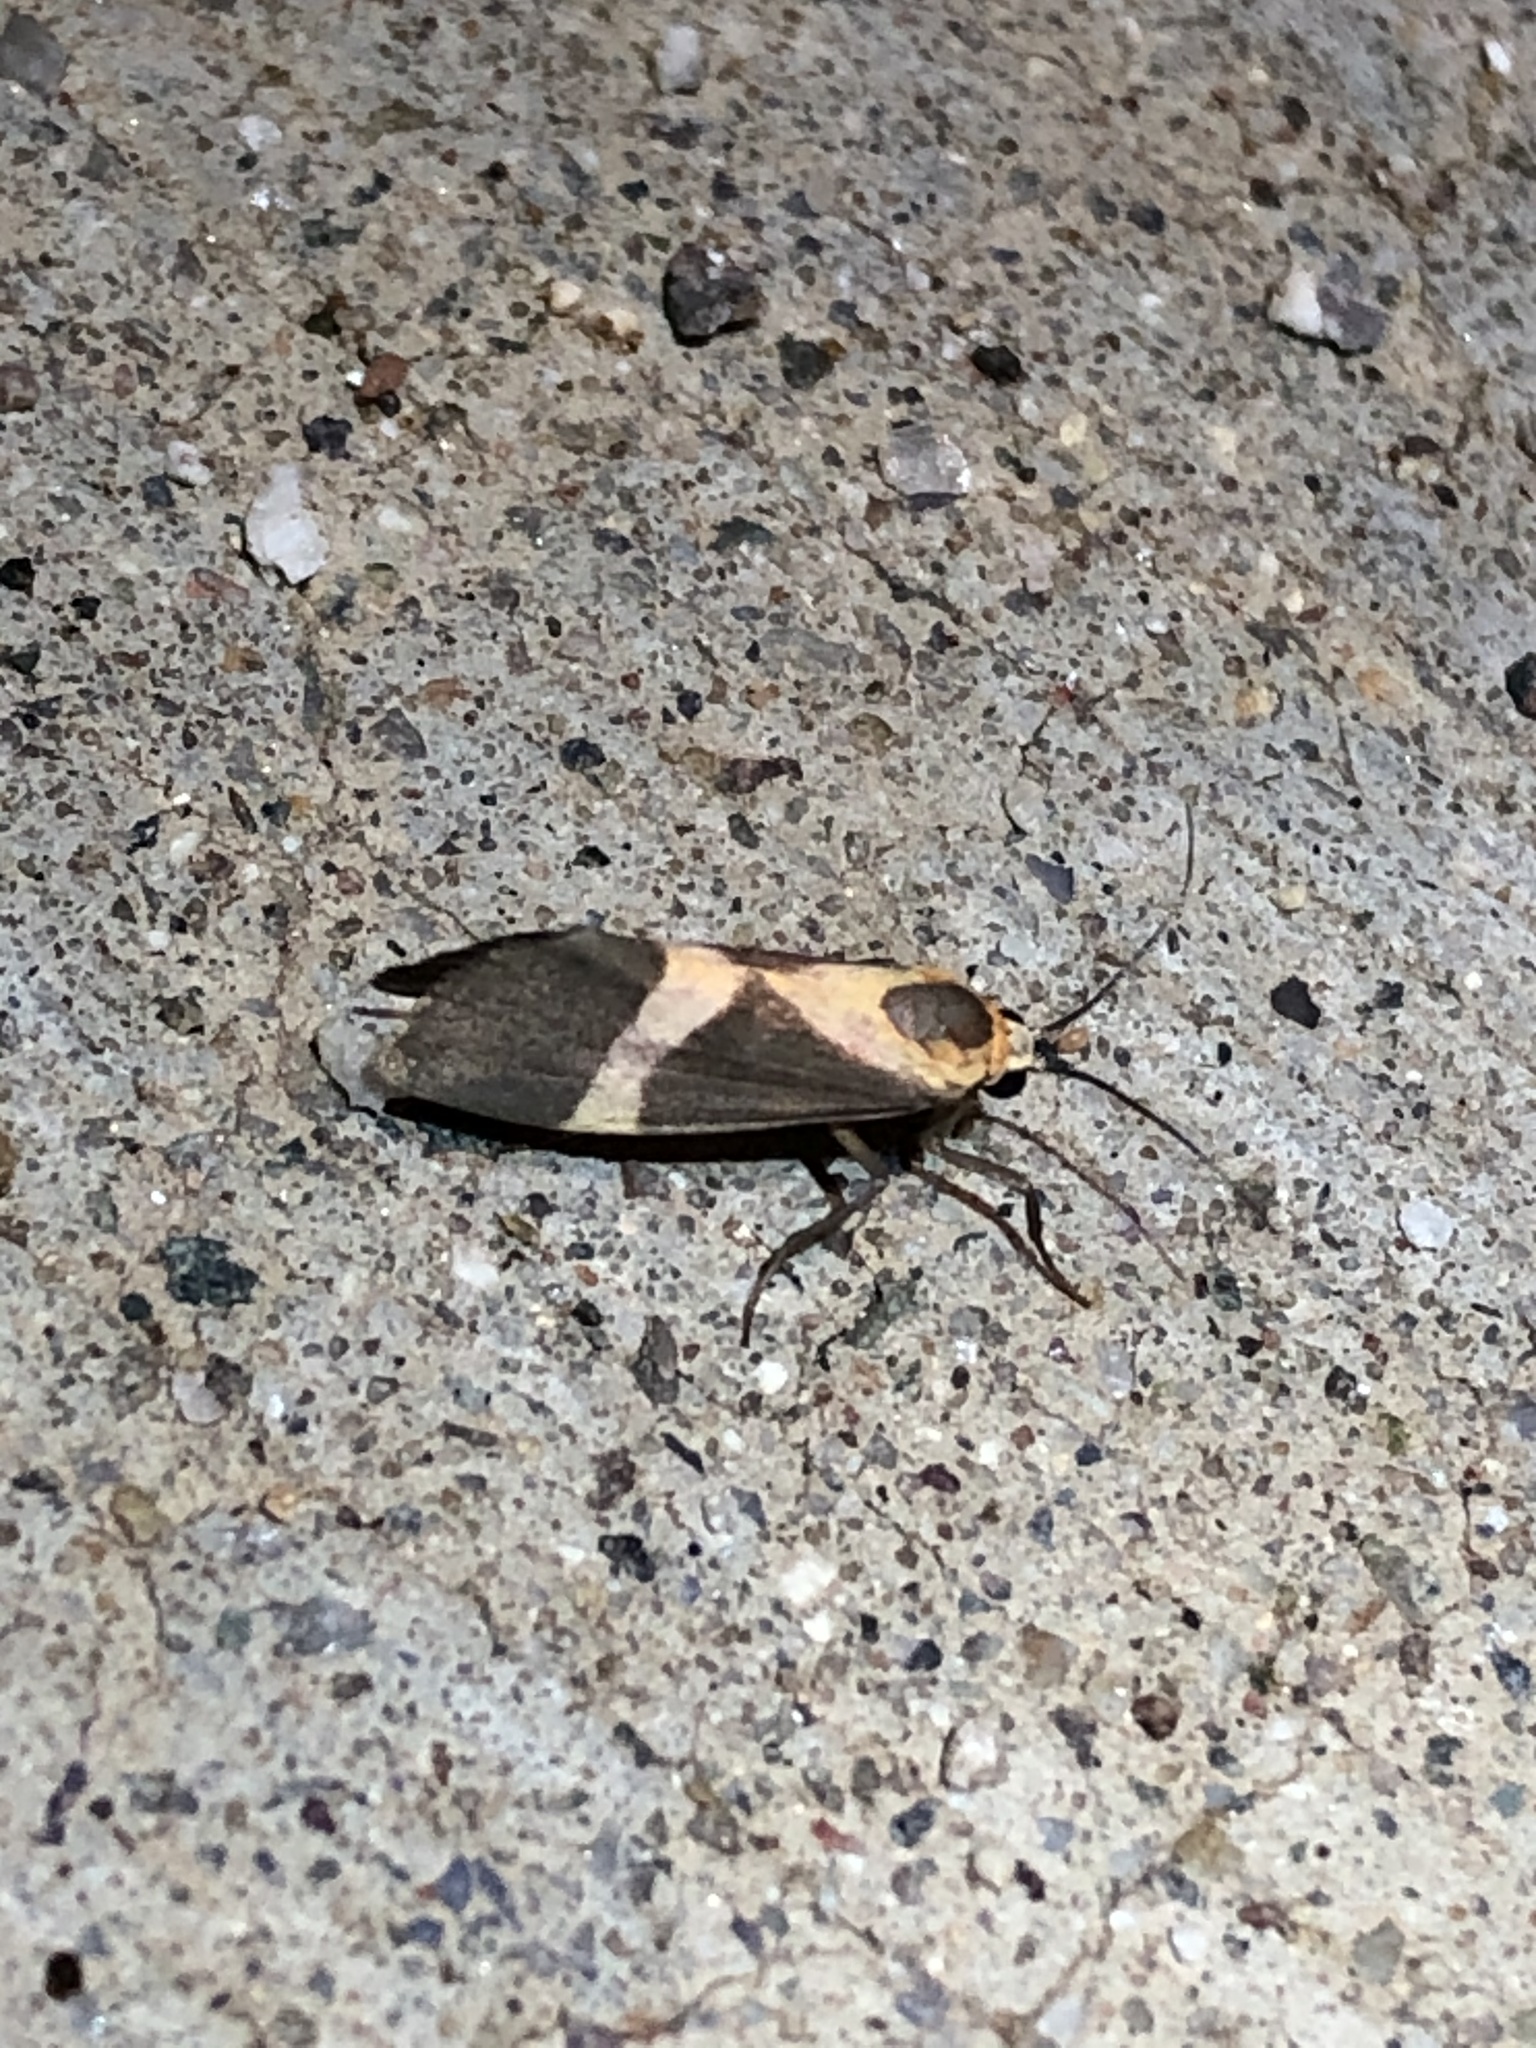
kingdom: Animalia
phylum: Arthropoda
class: Insecta
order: Lepidoptera
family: Erebidae
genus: Cisthene
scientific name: Cisthene tenuifascia
